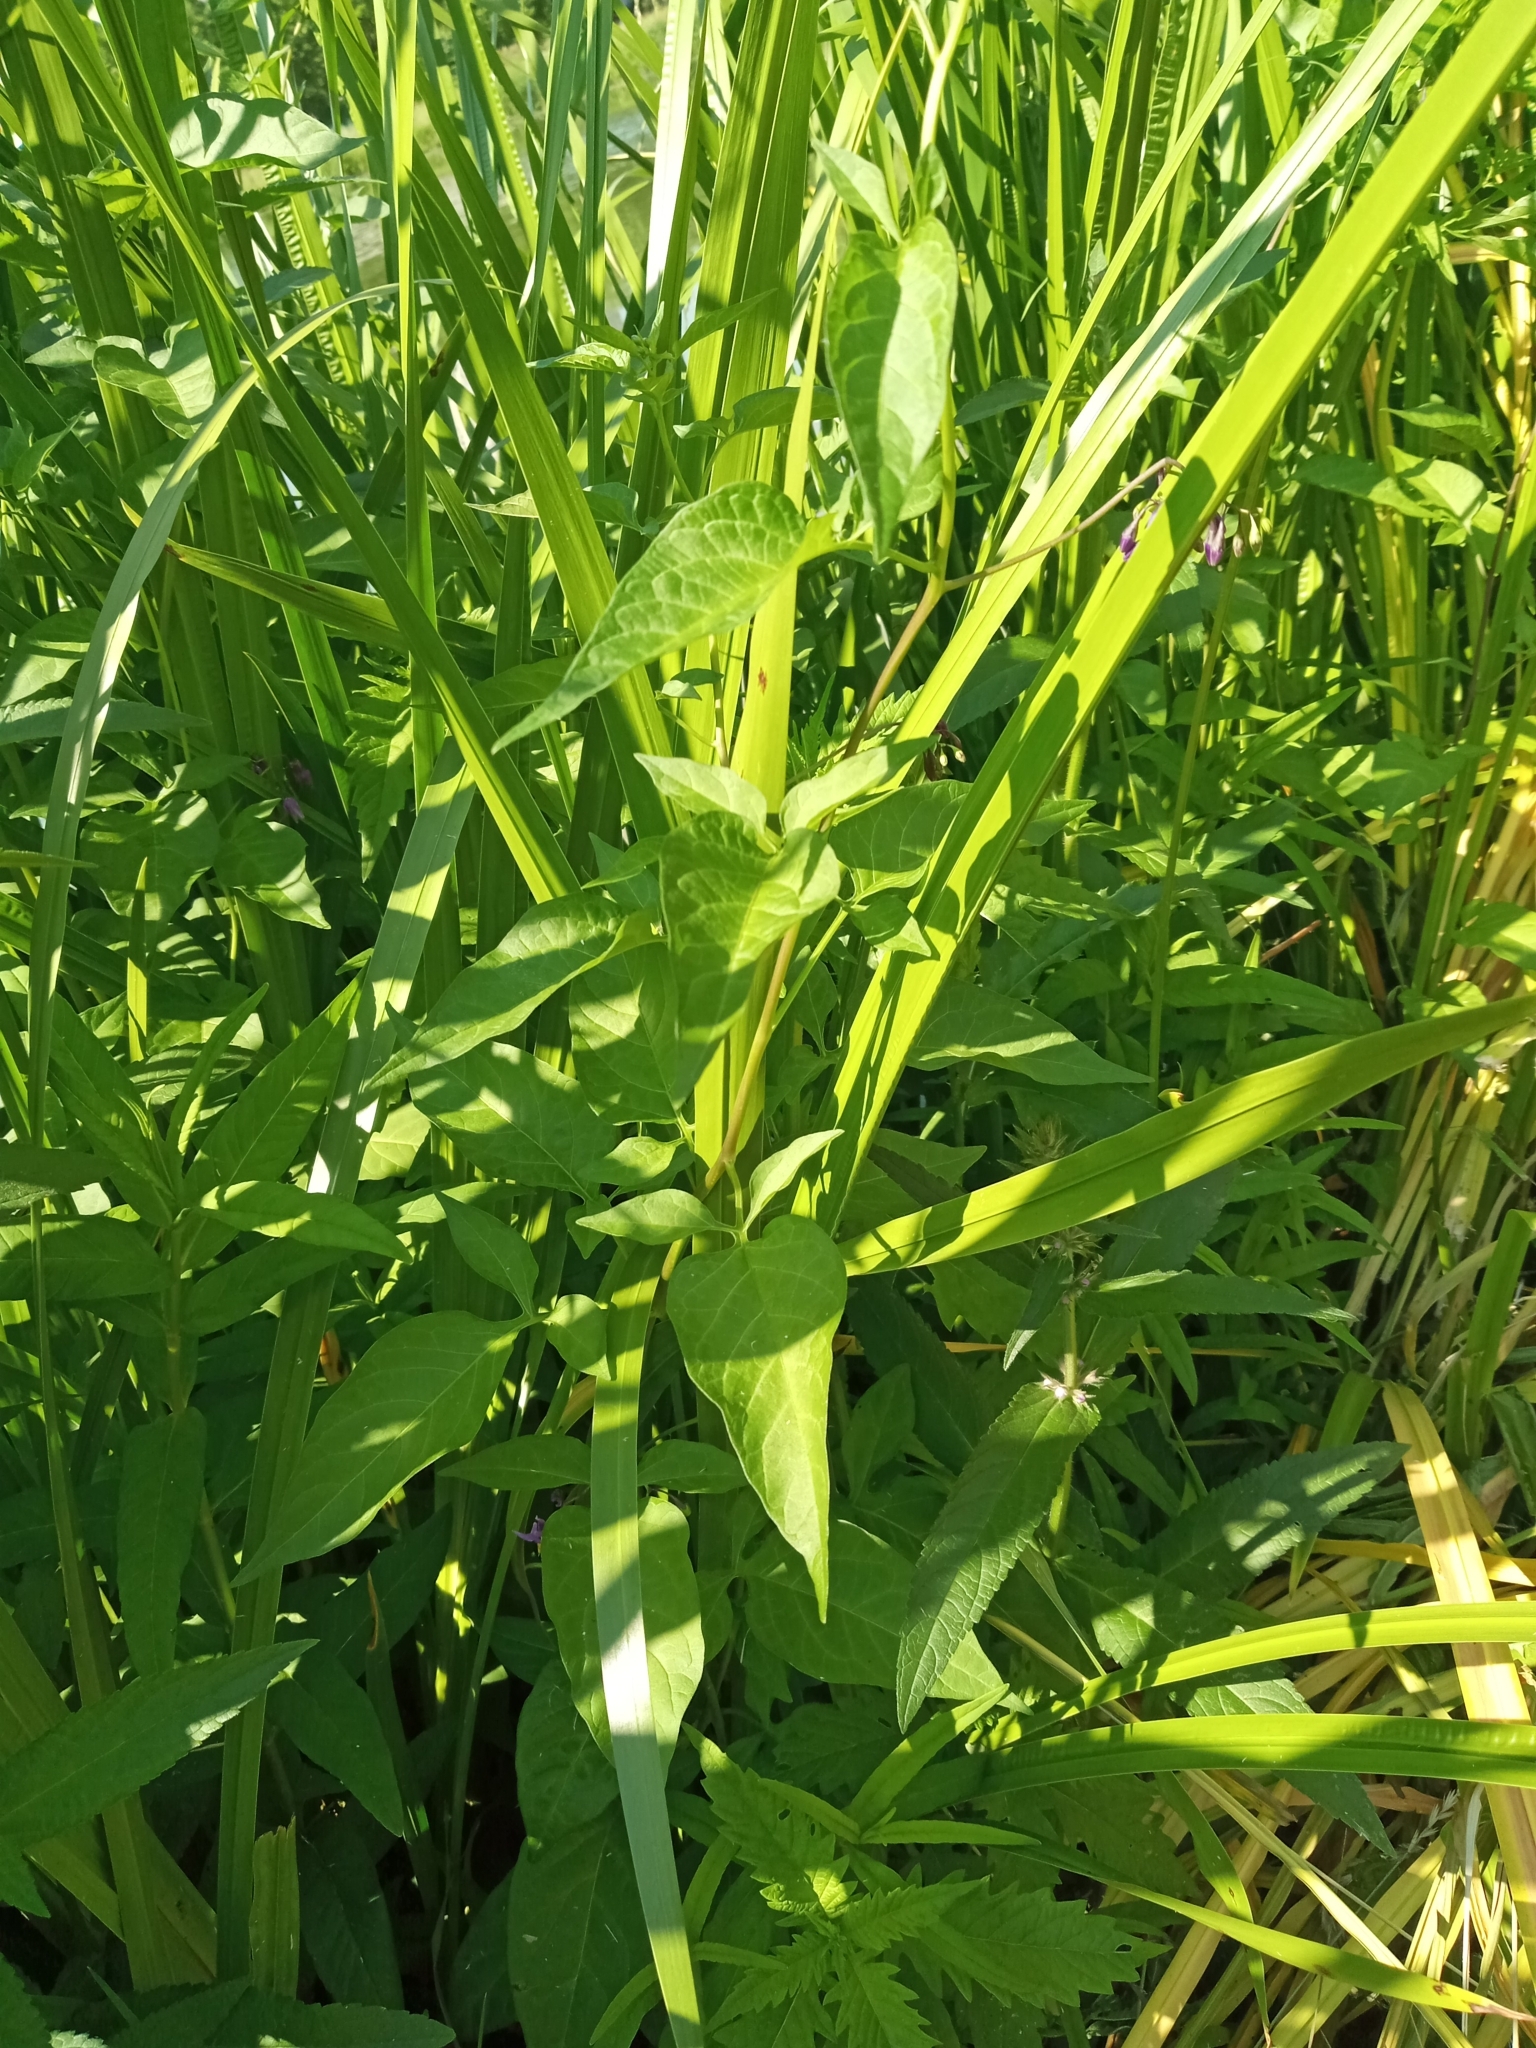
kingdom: Plantae
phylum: Tracheophyta
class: Magnoliopsida
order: Solanales
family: Solanaceae
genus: Solanum
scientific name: Solanum dulcamara
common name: Climbing nightshade
